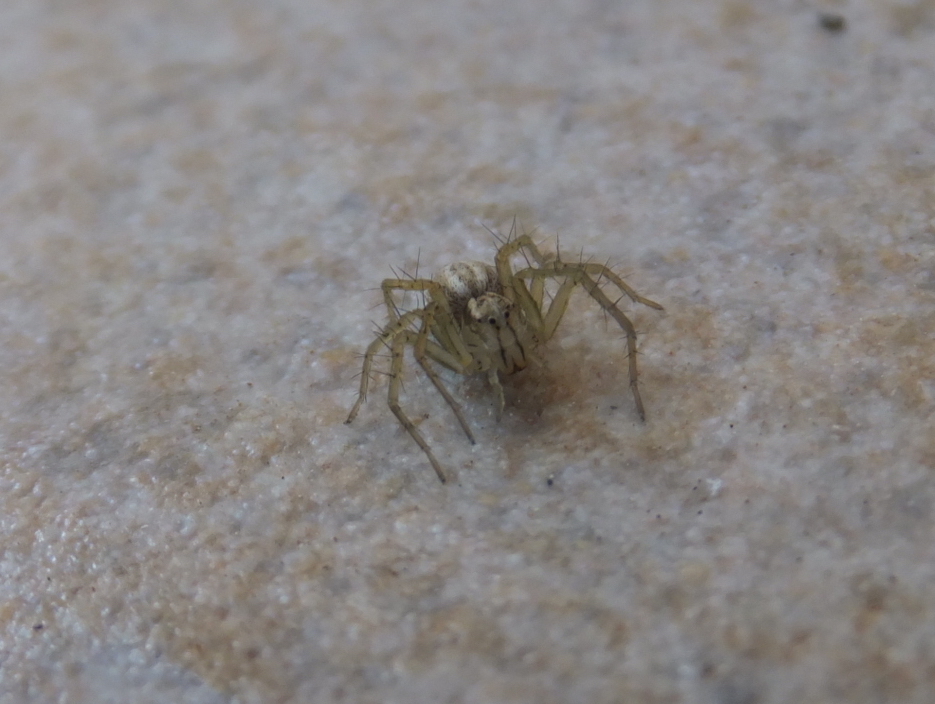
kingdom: Animalia
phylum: Arthropoda
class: Arachnida
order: Araneae
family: Oxyopidae
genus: Oxyopes
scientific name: Oxyopes lineatus
